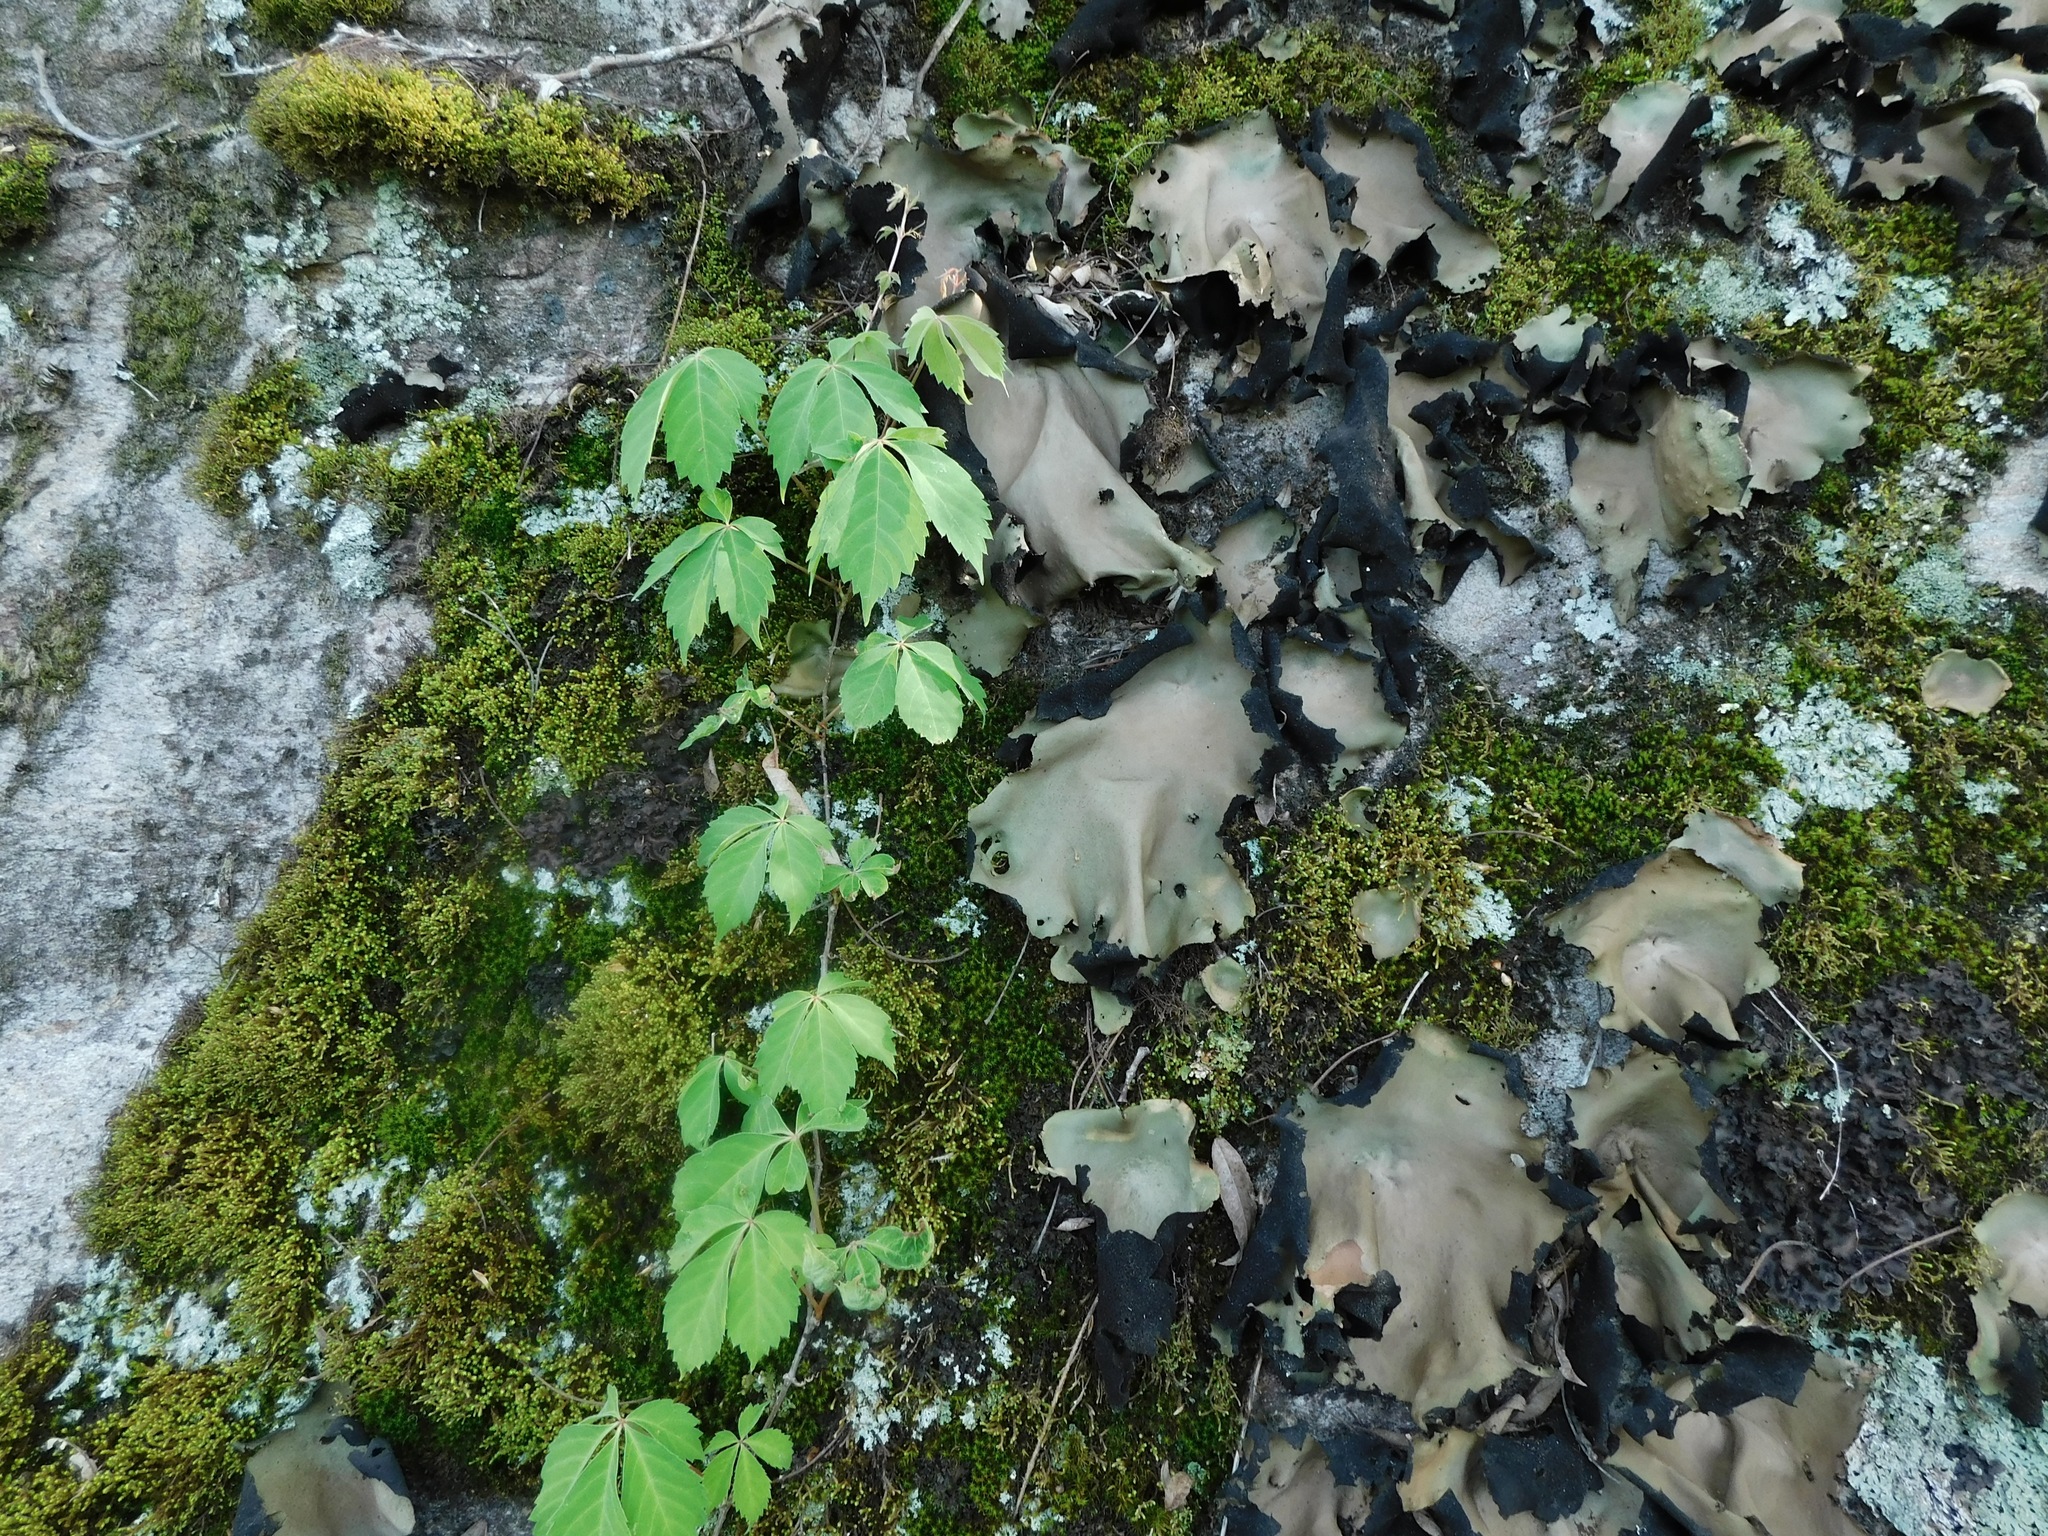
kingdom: Plantae
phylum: Tracheophyta
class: Magnoliopsida
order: Vitales
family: Vitaceae
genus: Parthenocissus
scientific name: Parthenocissus quinquefolia
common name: Virginia-creeper
